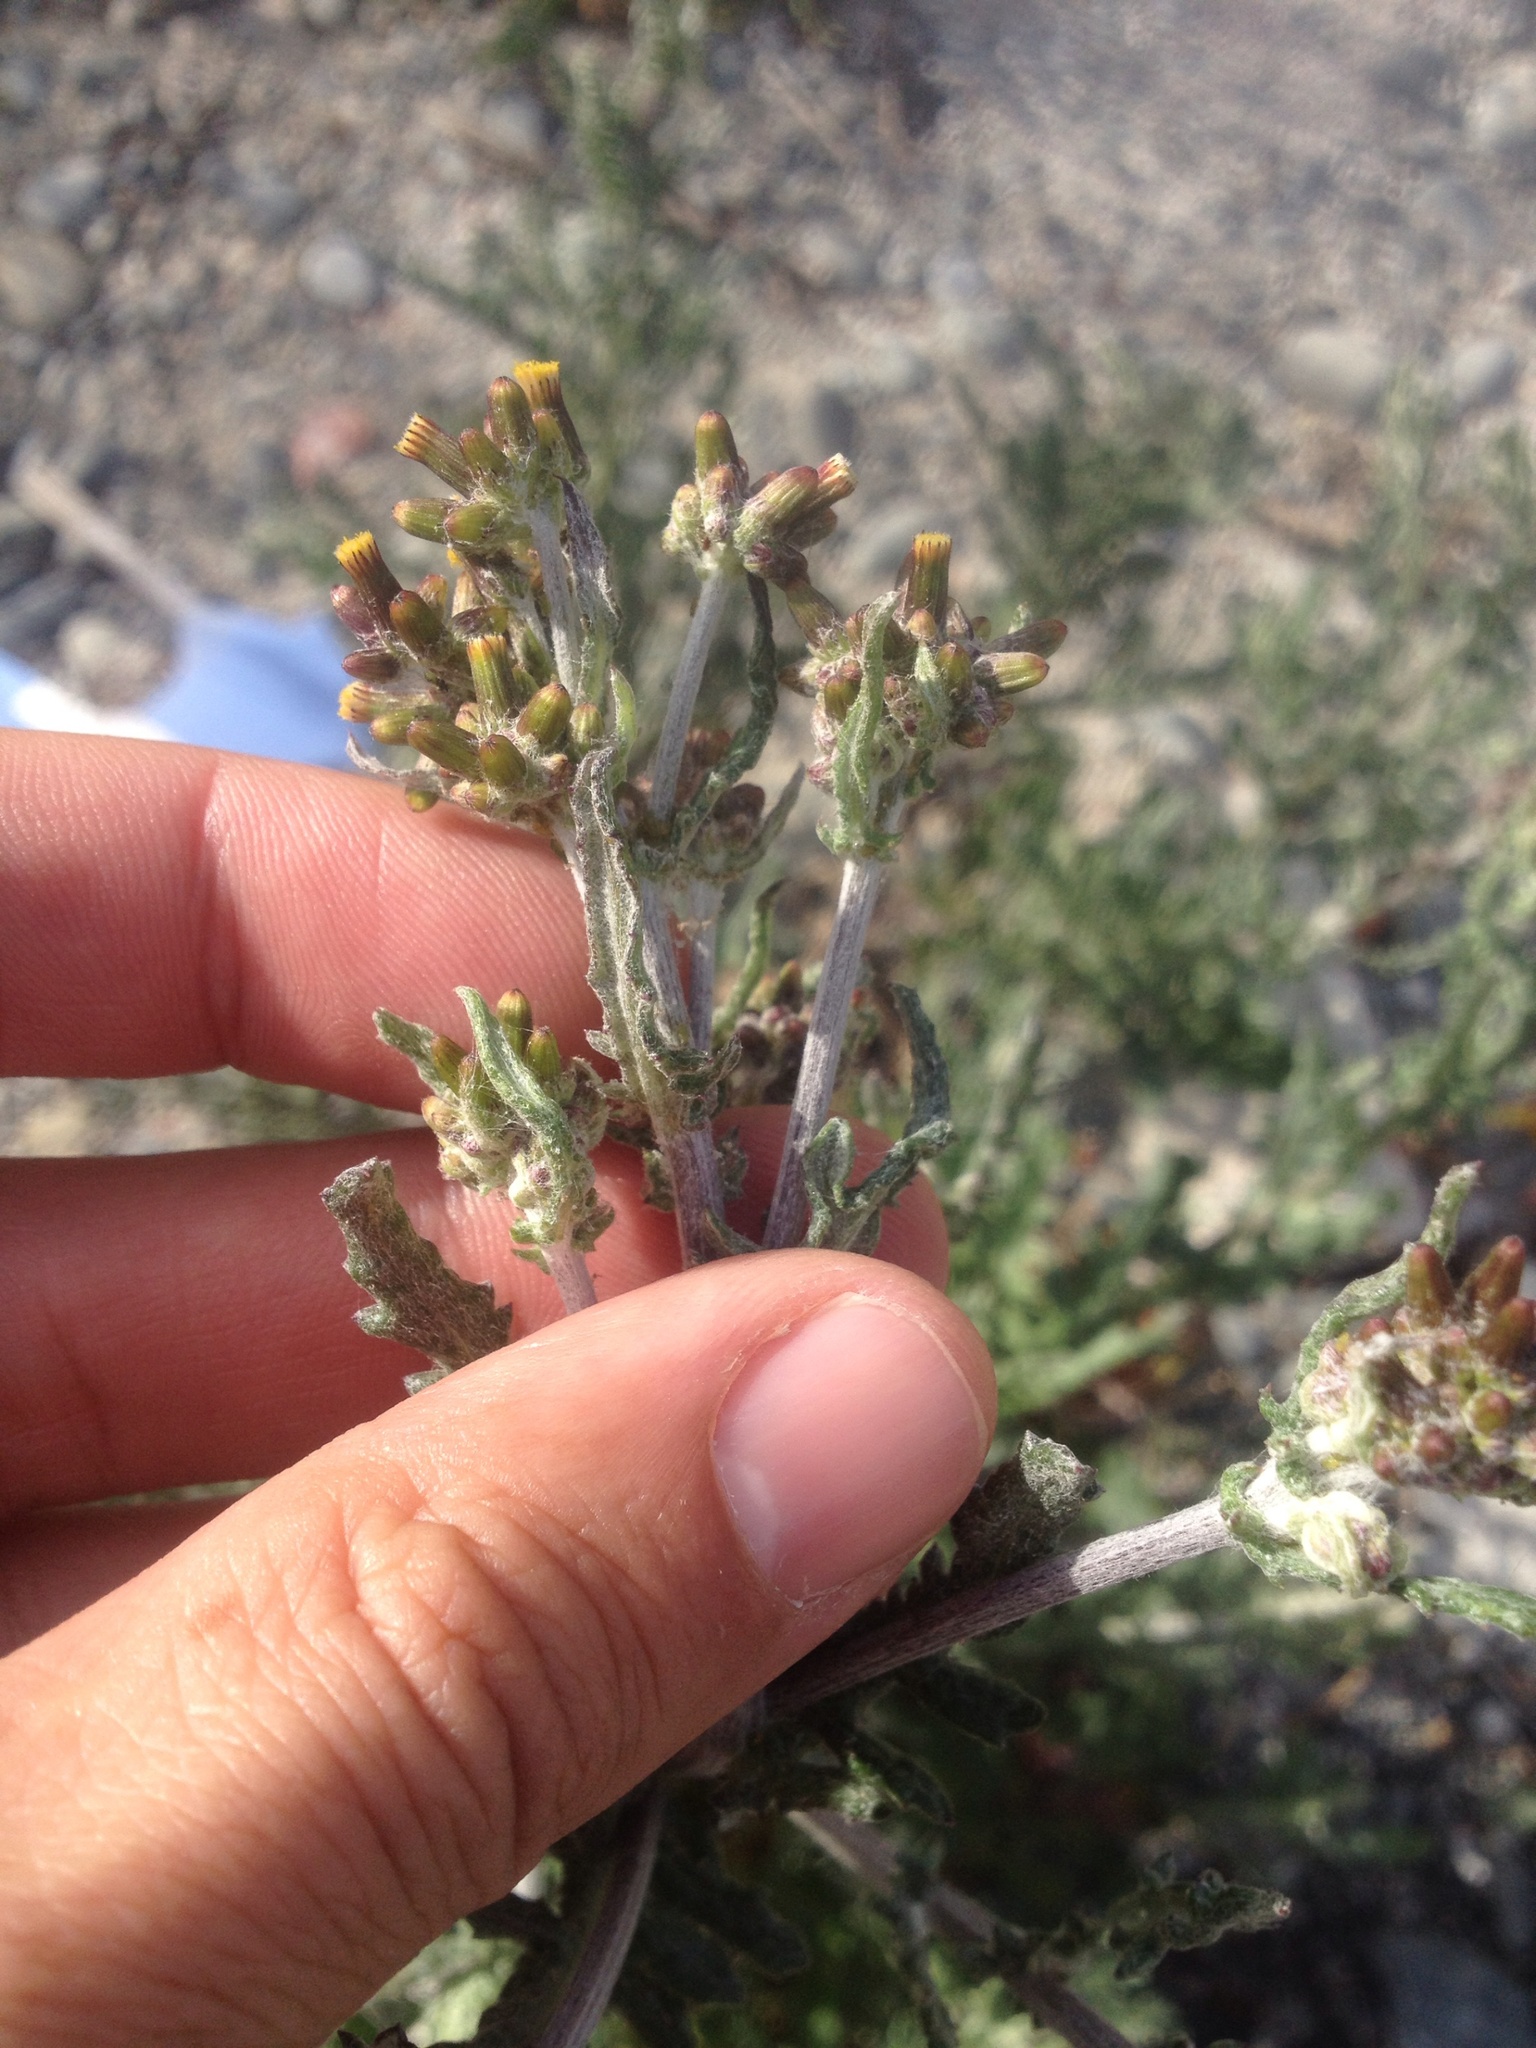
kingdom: Plantae
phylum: Tracheophyta
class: Magnoliopsida
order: Asterales
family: Asteraceae
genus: Senecio
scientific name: Senecio quadridentatus
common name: Cotton fireweed
